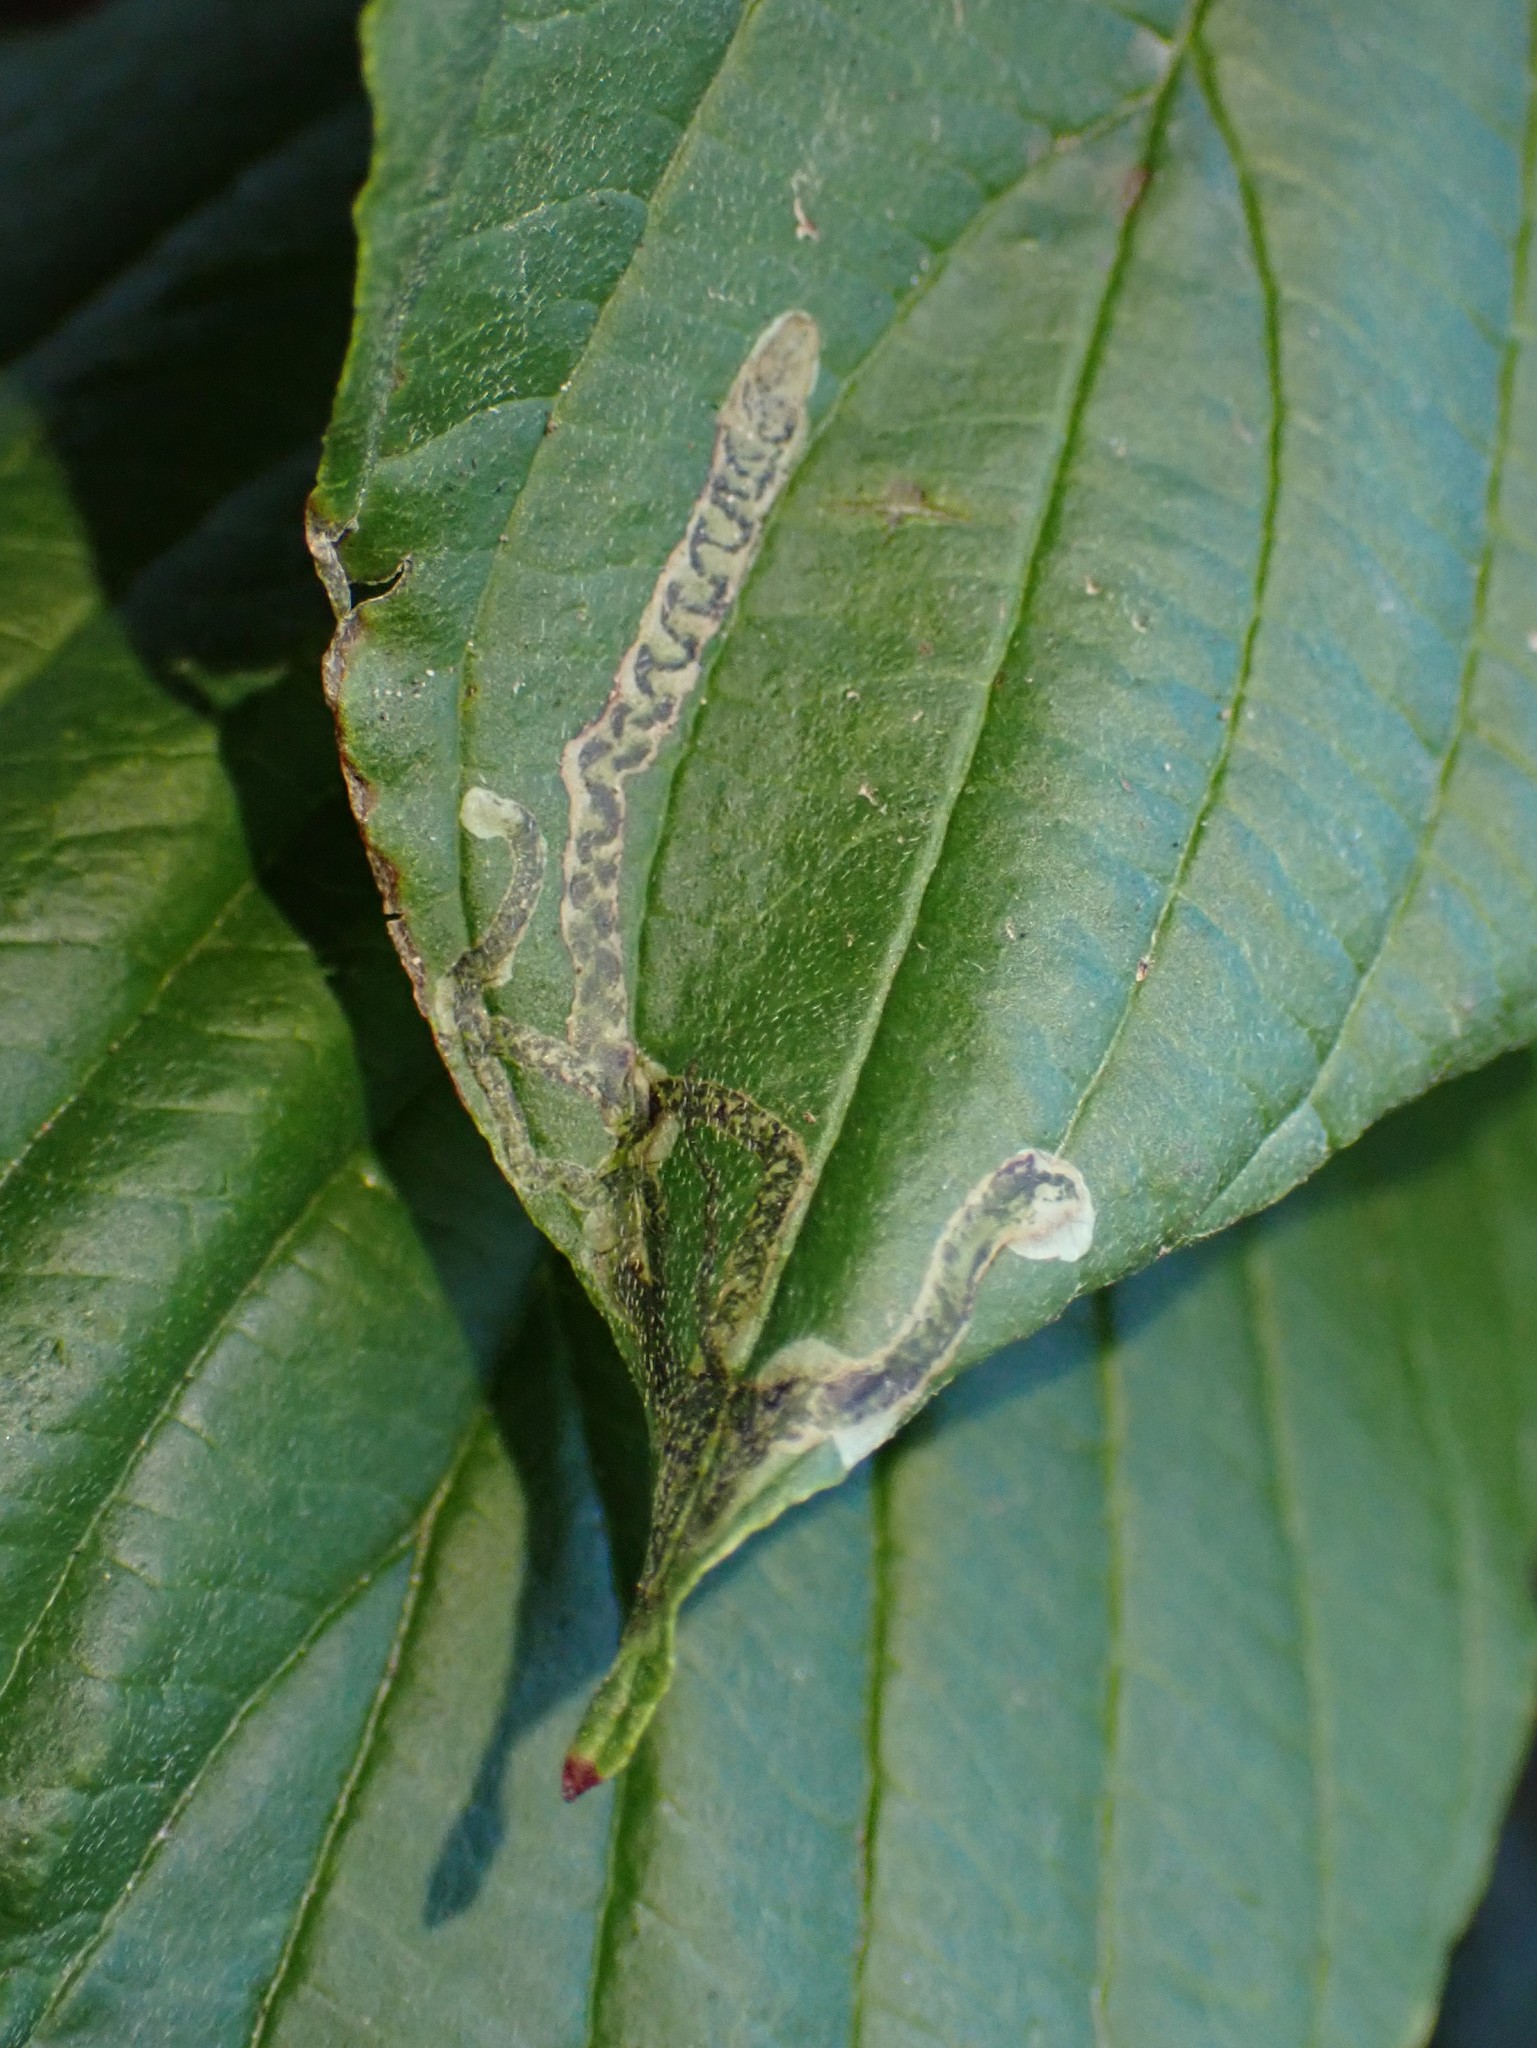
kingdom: Animalia
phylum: Arthropoda
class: Insecta
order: Diptera
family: Agromyzidae
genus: Phytomyza
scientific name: Phytomyza agromyzina
